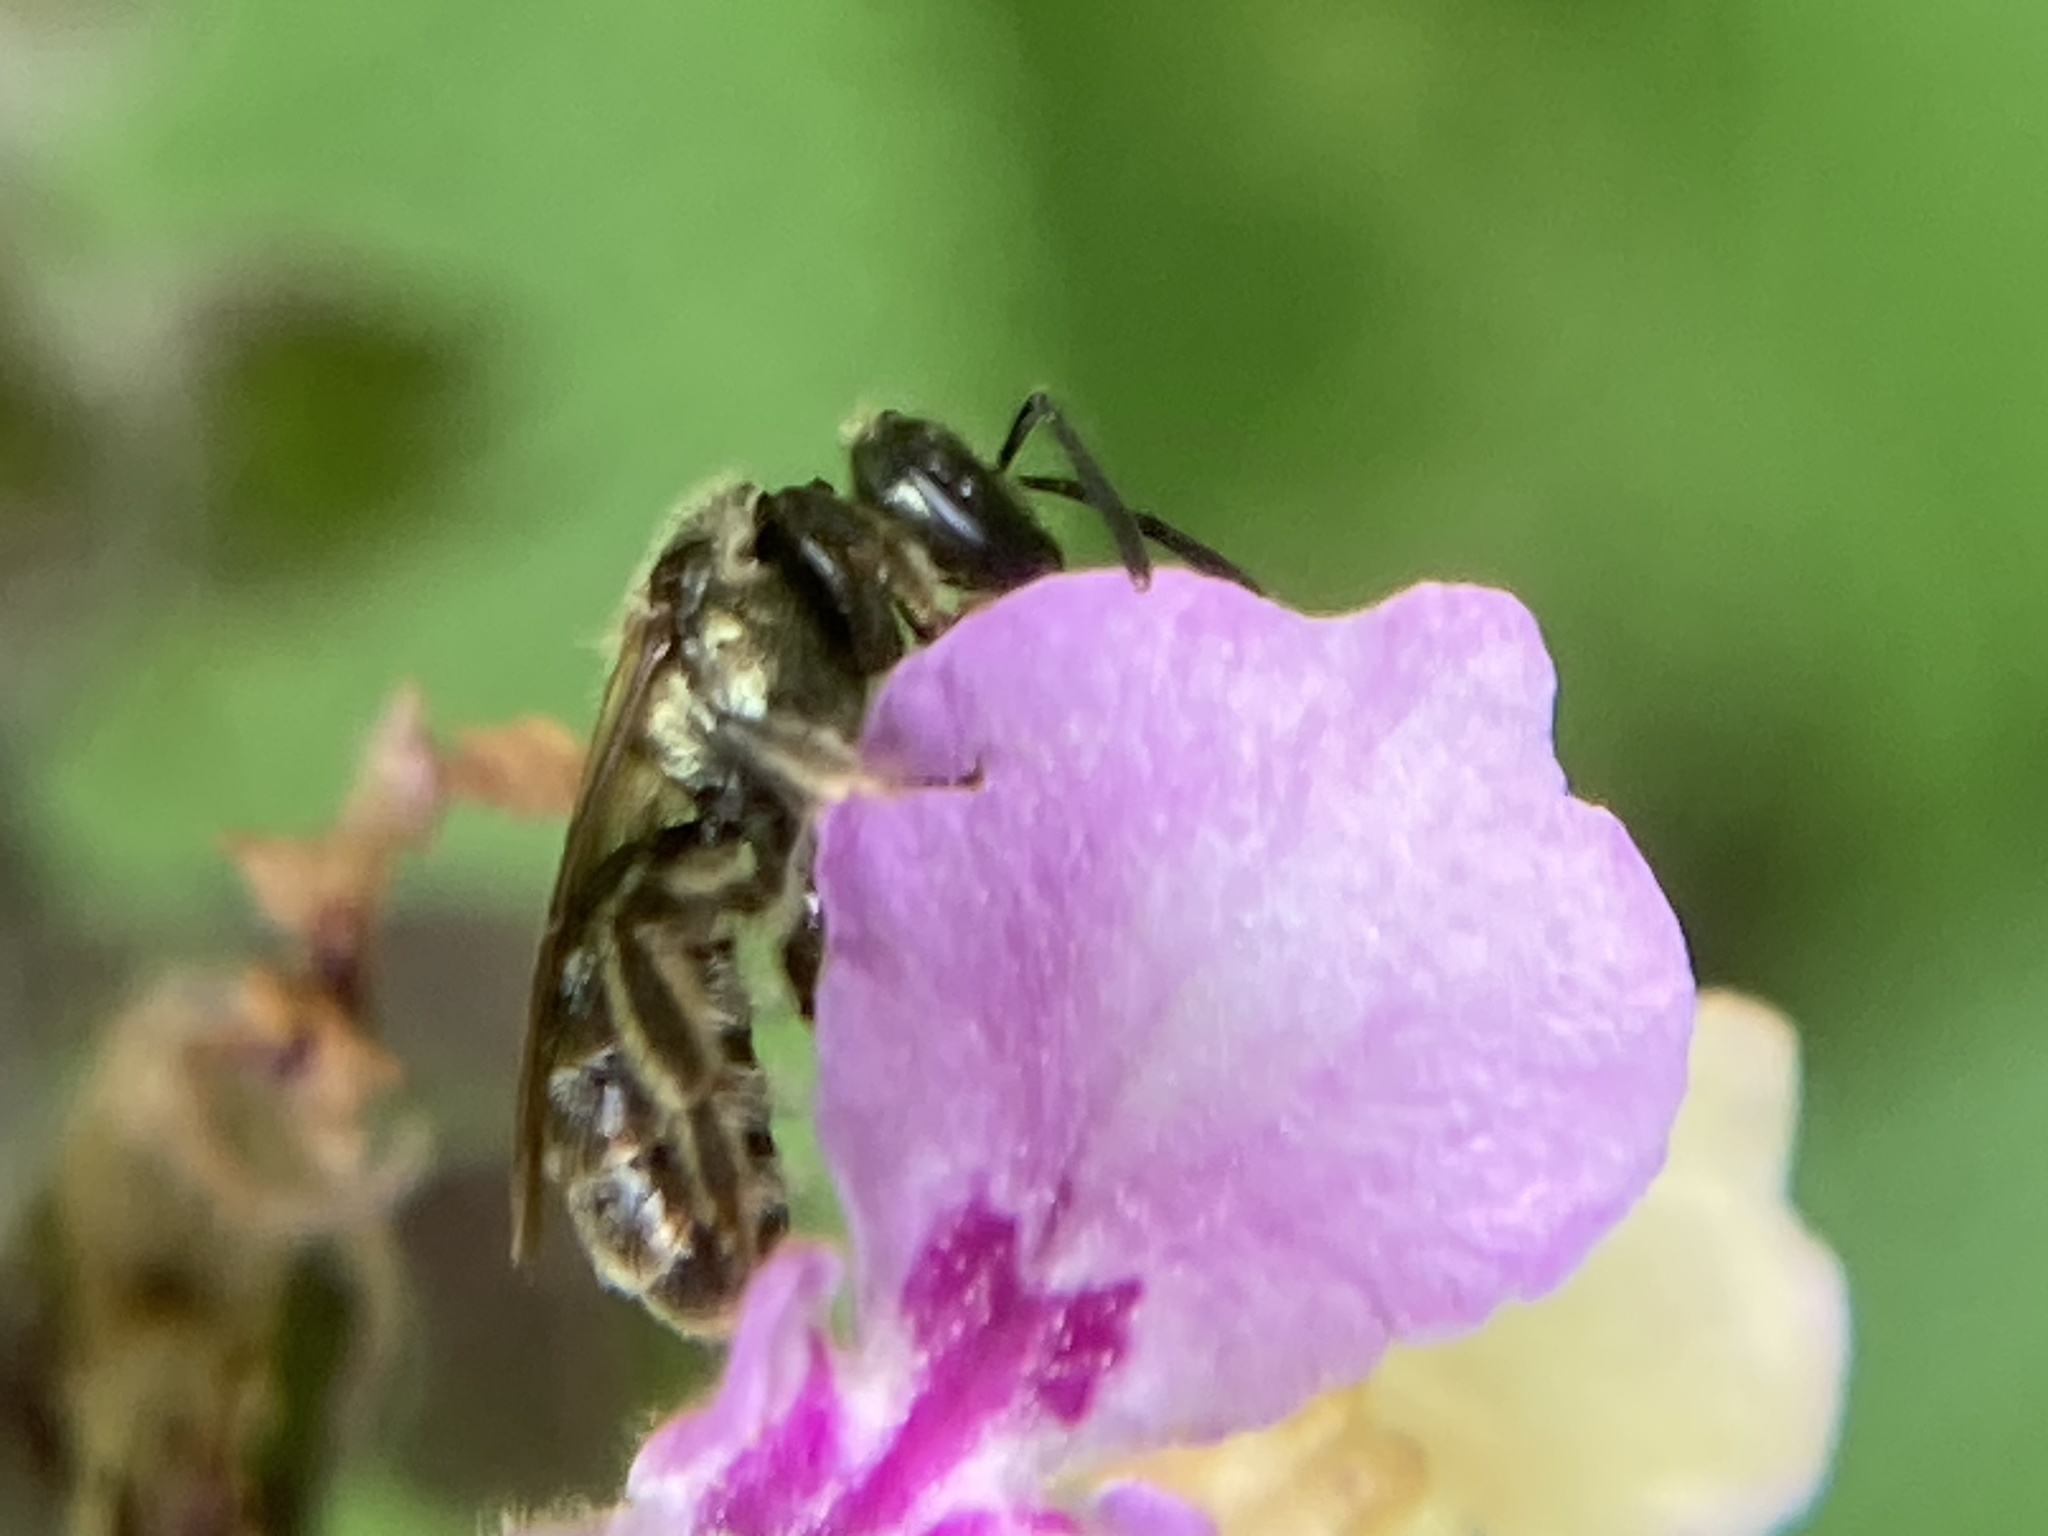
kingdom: Animalia
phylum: Arthropoda
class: Insecta
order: Hymenoptera
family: Halictidae
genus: Dialictus
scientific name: Dialictus
